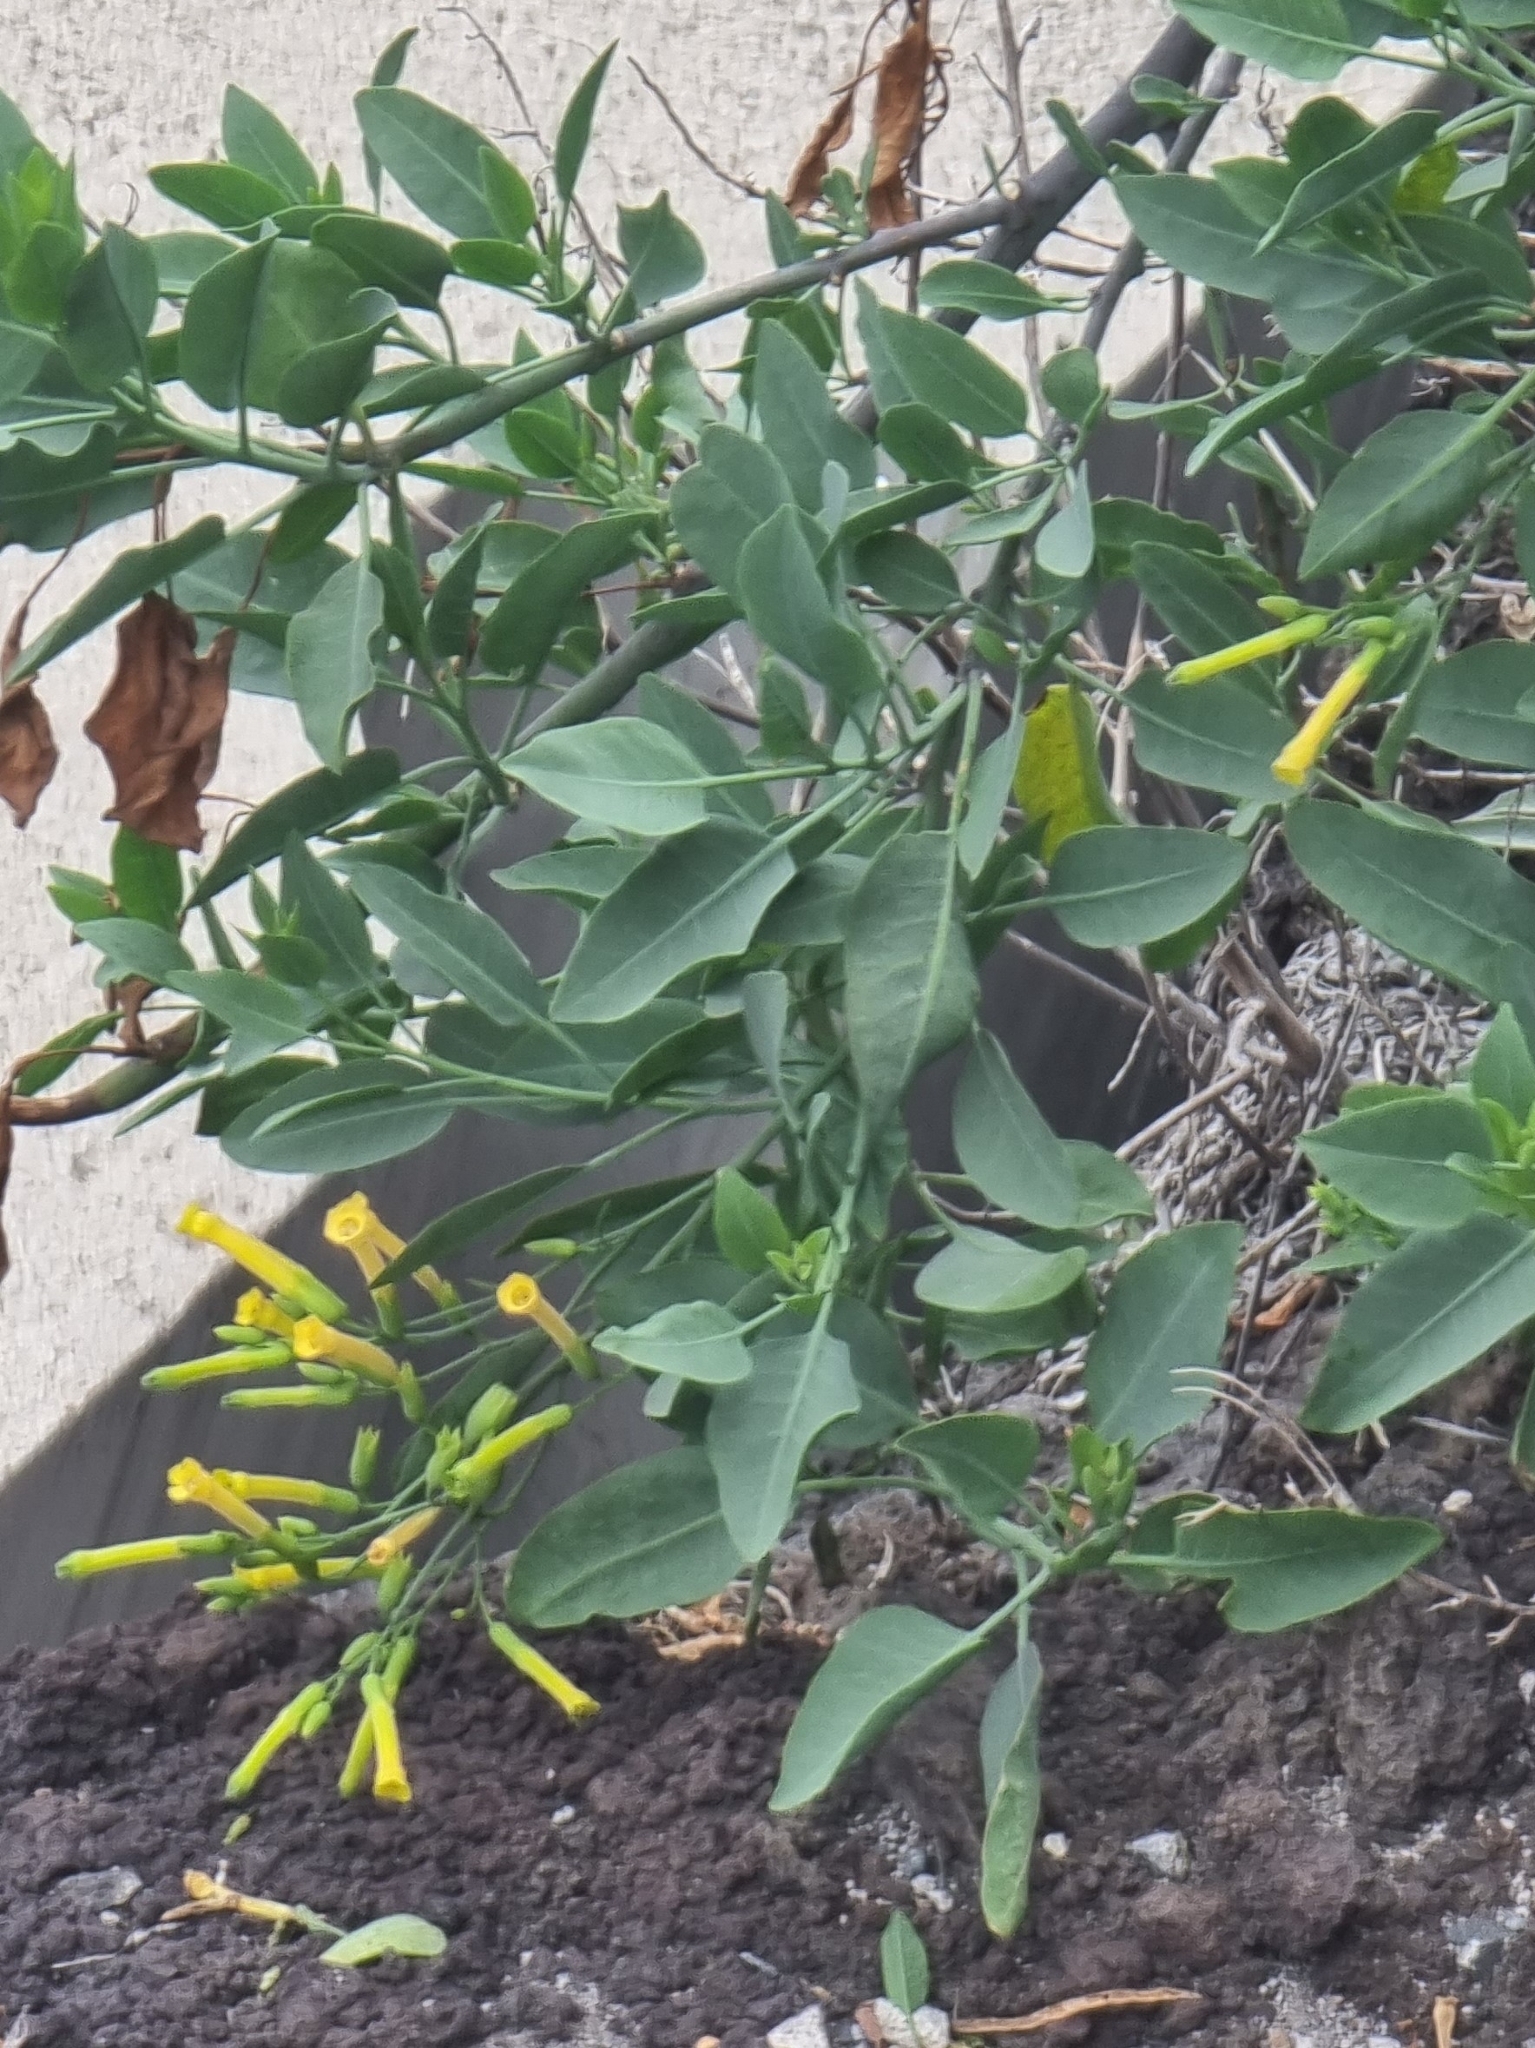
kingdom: Plantae
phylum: Tracheophyta
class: Magnoliopsida
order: Solanales
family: Solanaceae
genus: Nicotiana
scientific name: Nicotiana glauca
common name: Tree tobacco
